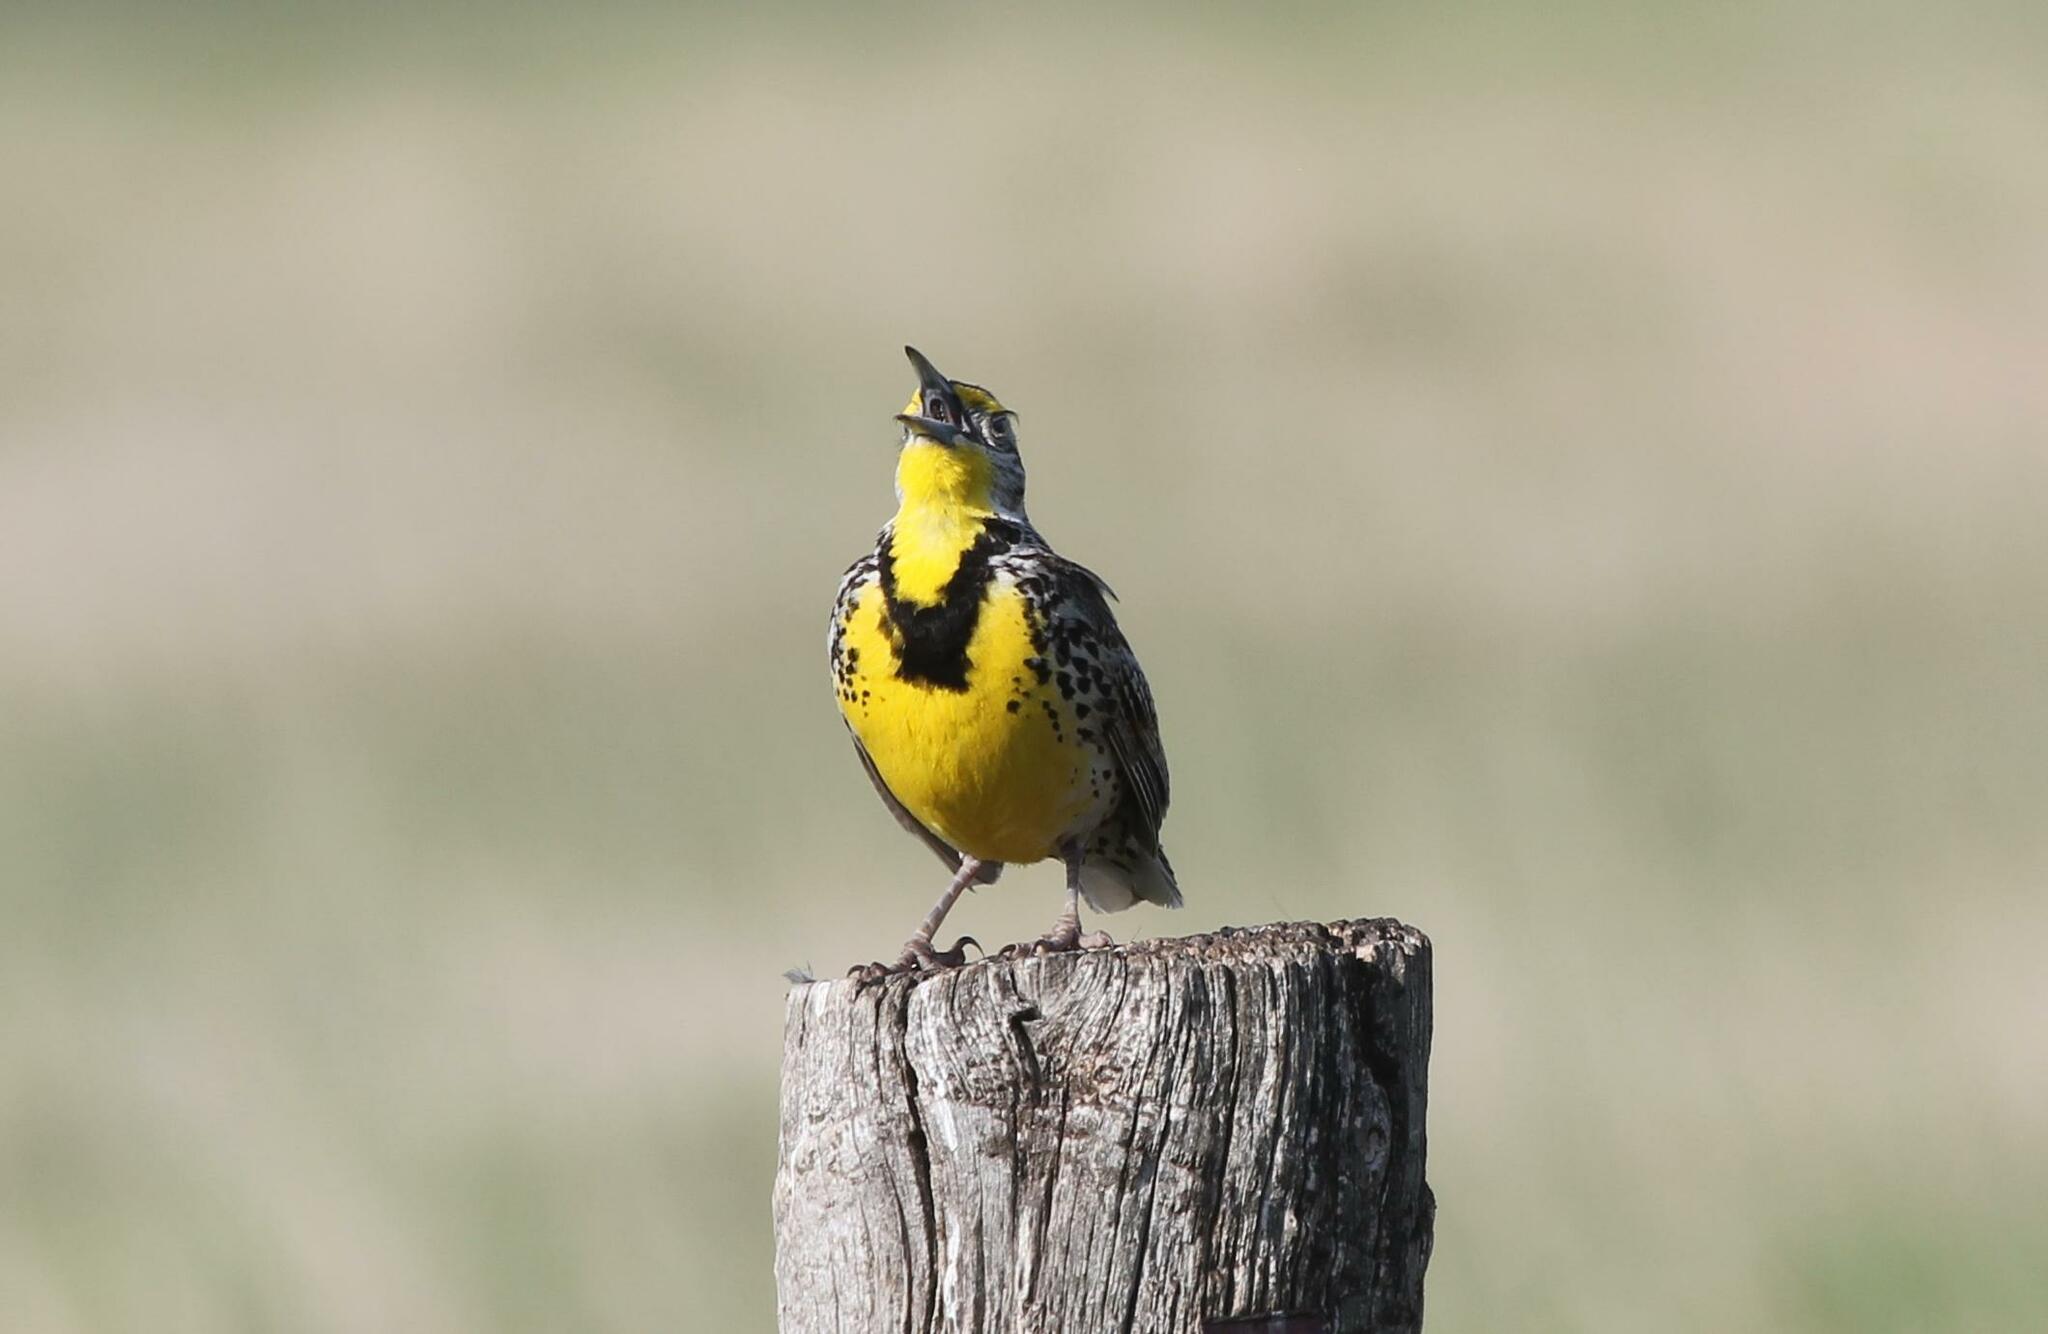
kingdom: Animalia
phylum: Chordata
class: Aves
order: Passeriformes
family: Icteridae
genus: Sturnella
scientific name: Sturnella neglecta
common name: Western meadowlark
